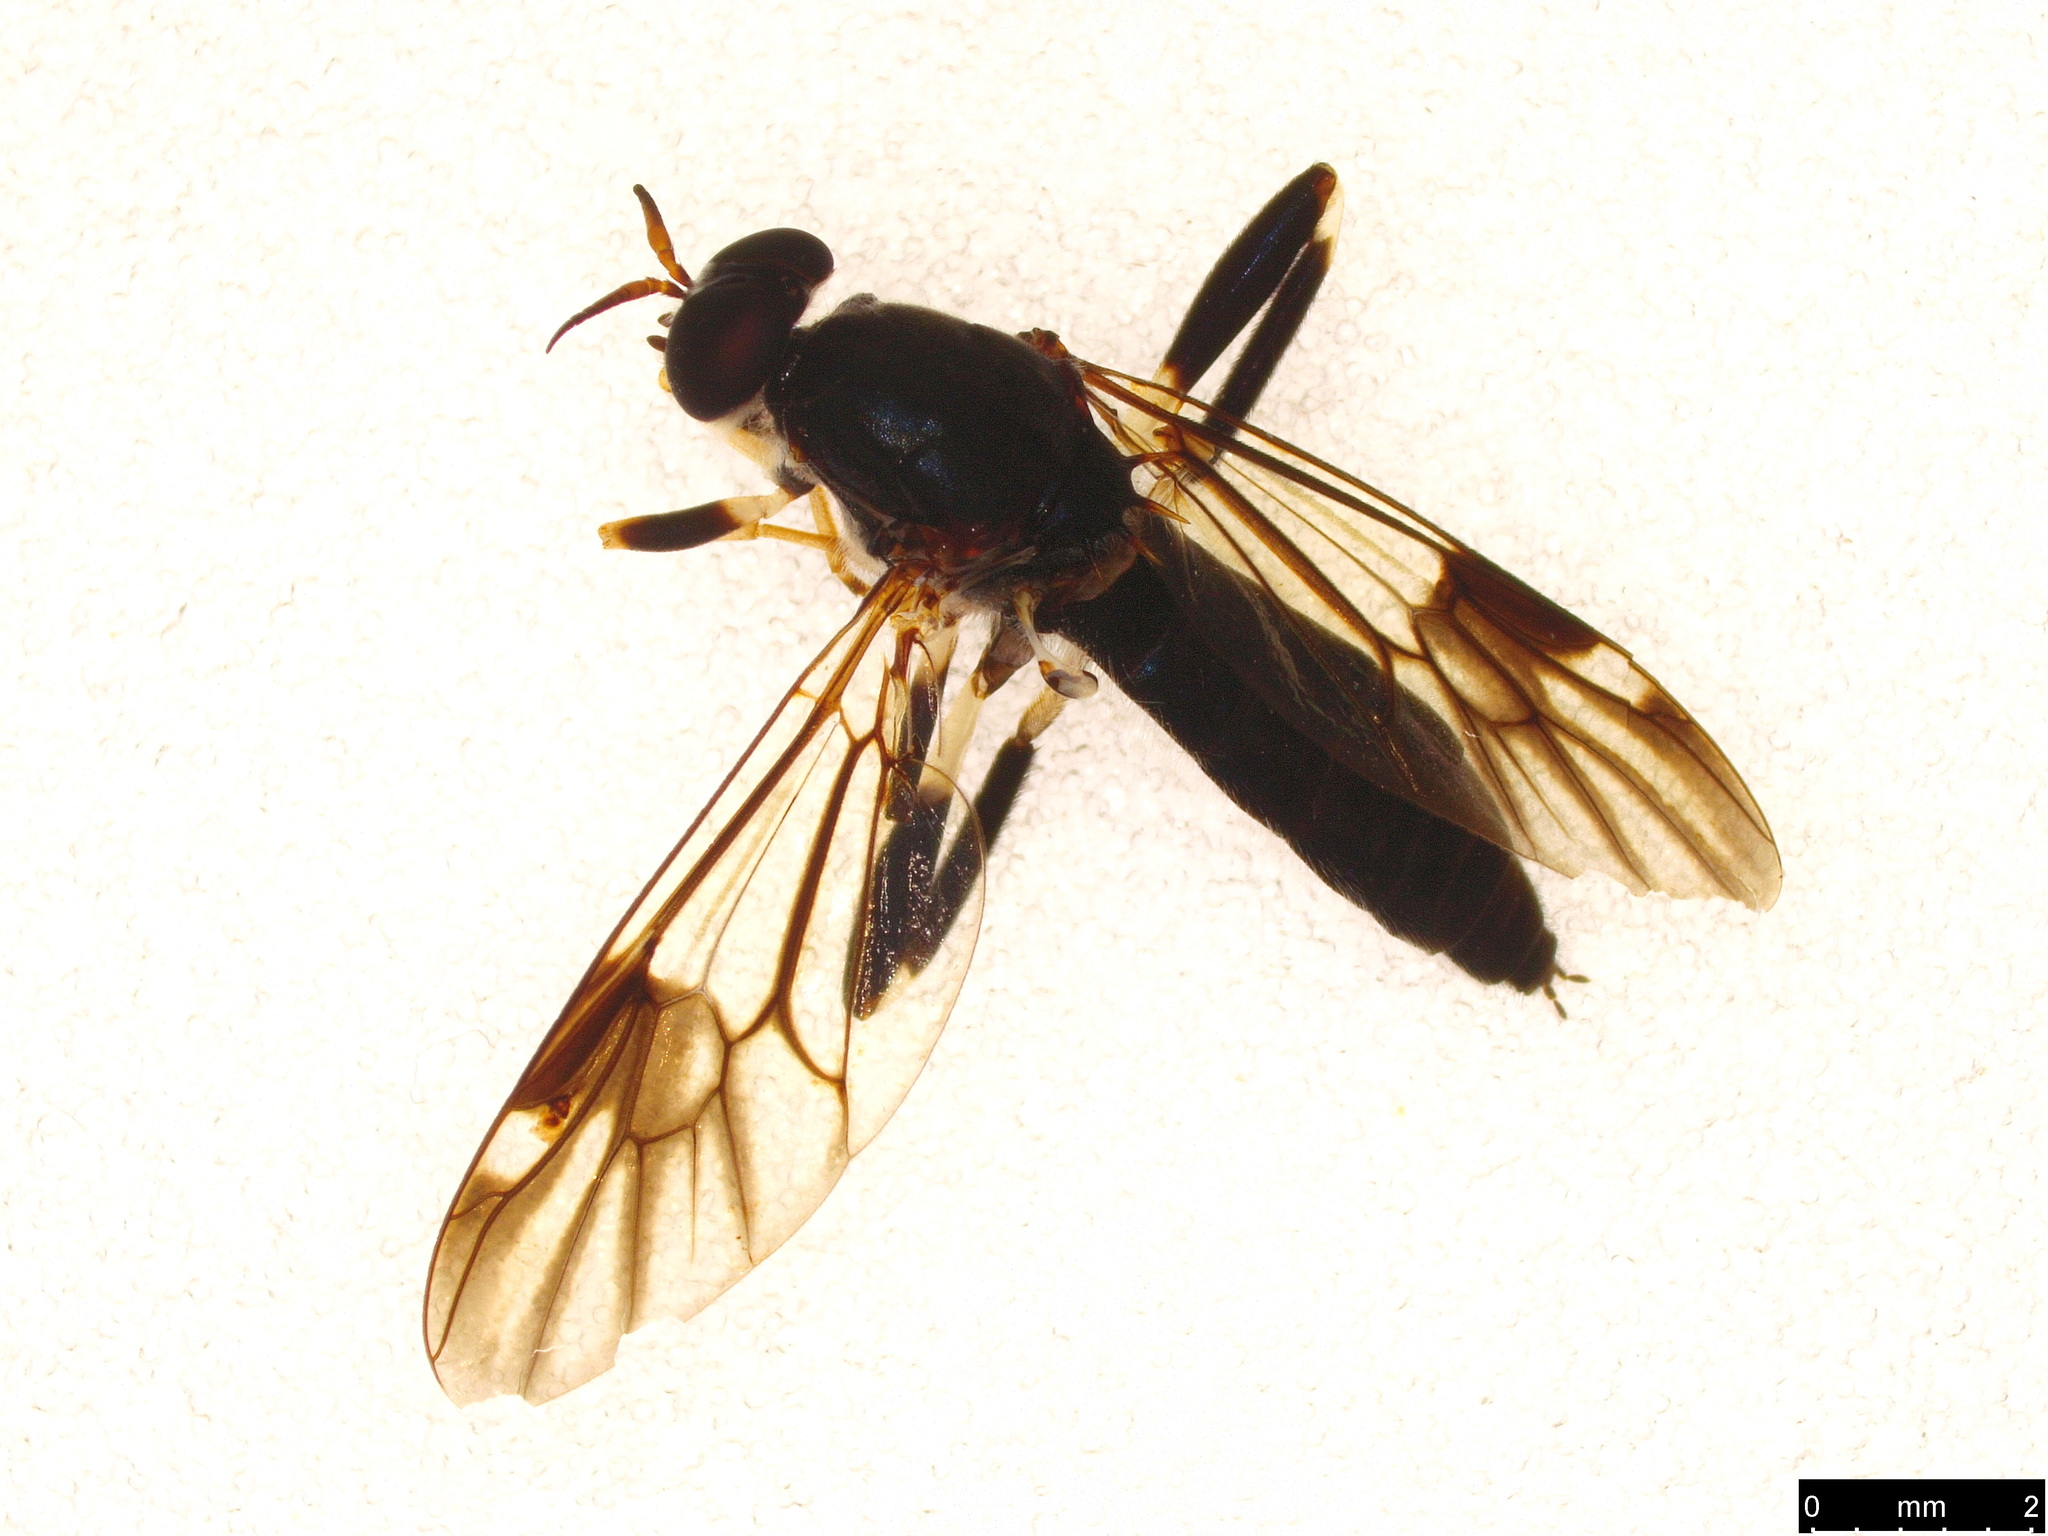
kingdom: Animalia
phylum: Arthropoda
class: Insecta
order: Diptera
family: Stratiomyidae
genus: Exaireta
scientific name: Exaireta spinigera
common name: Blue soldier fly
